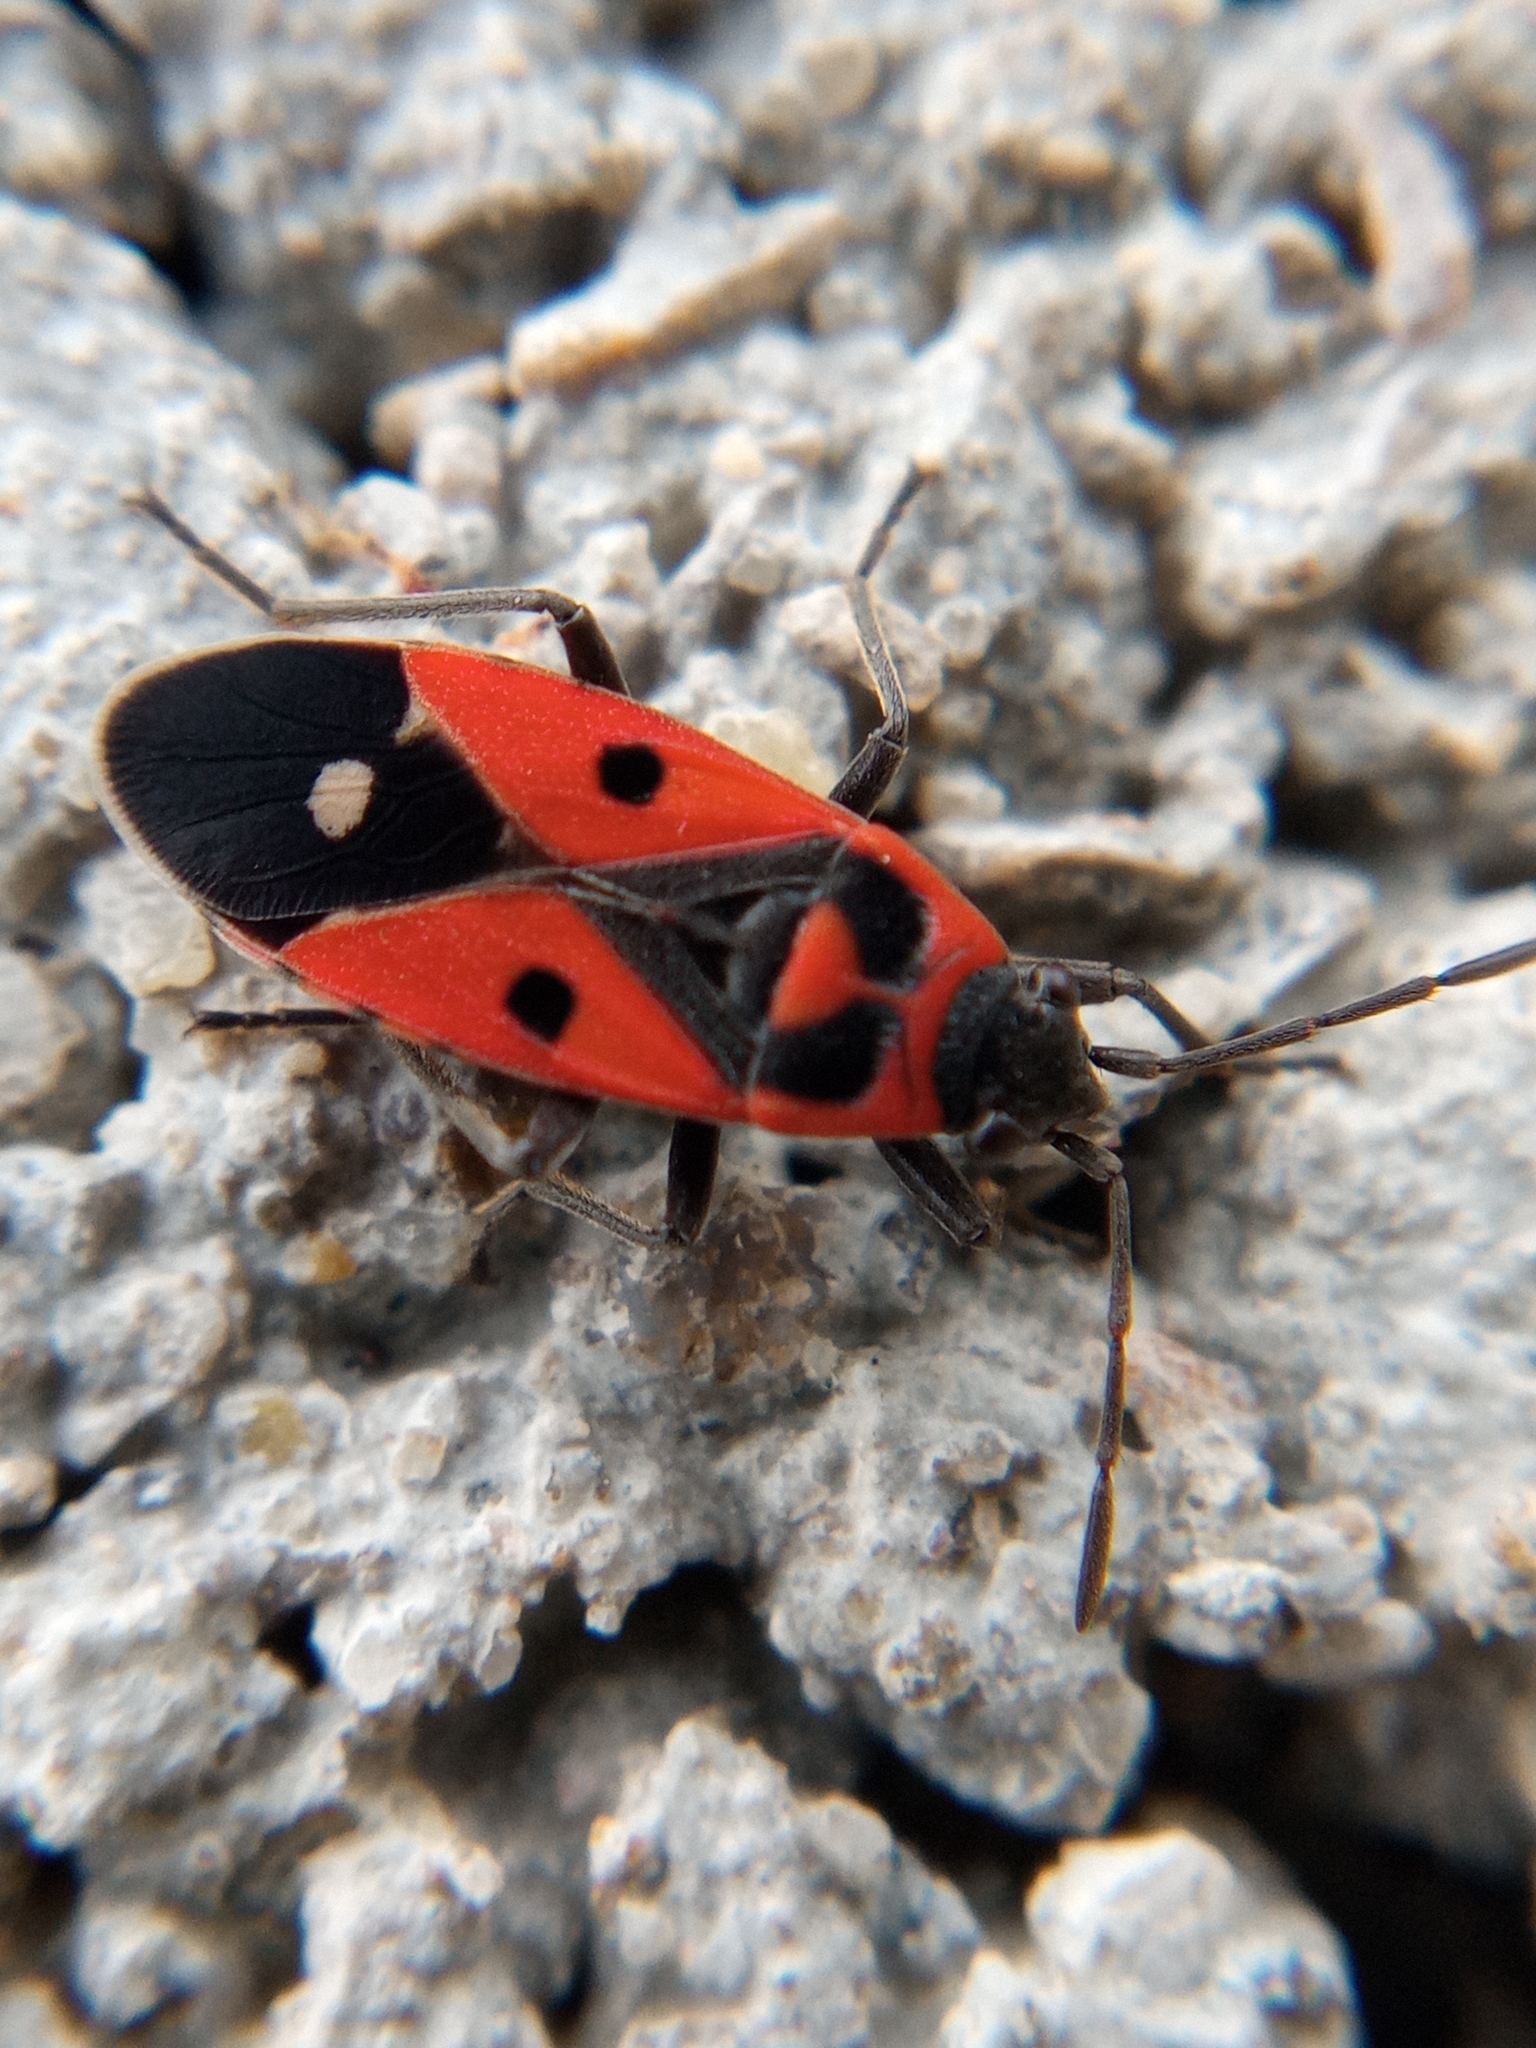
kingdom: Animalia
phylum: Arthropoda
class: Insecta
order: Hemiptera
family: Lygaeidae
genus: Melanocoryphus
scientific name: Melanocoryphus albomaculatus
